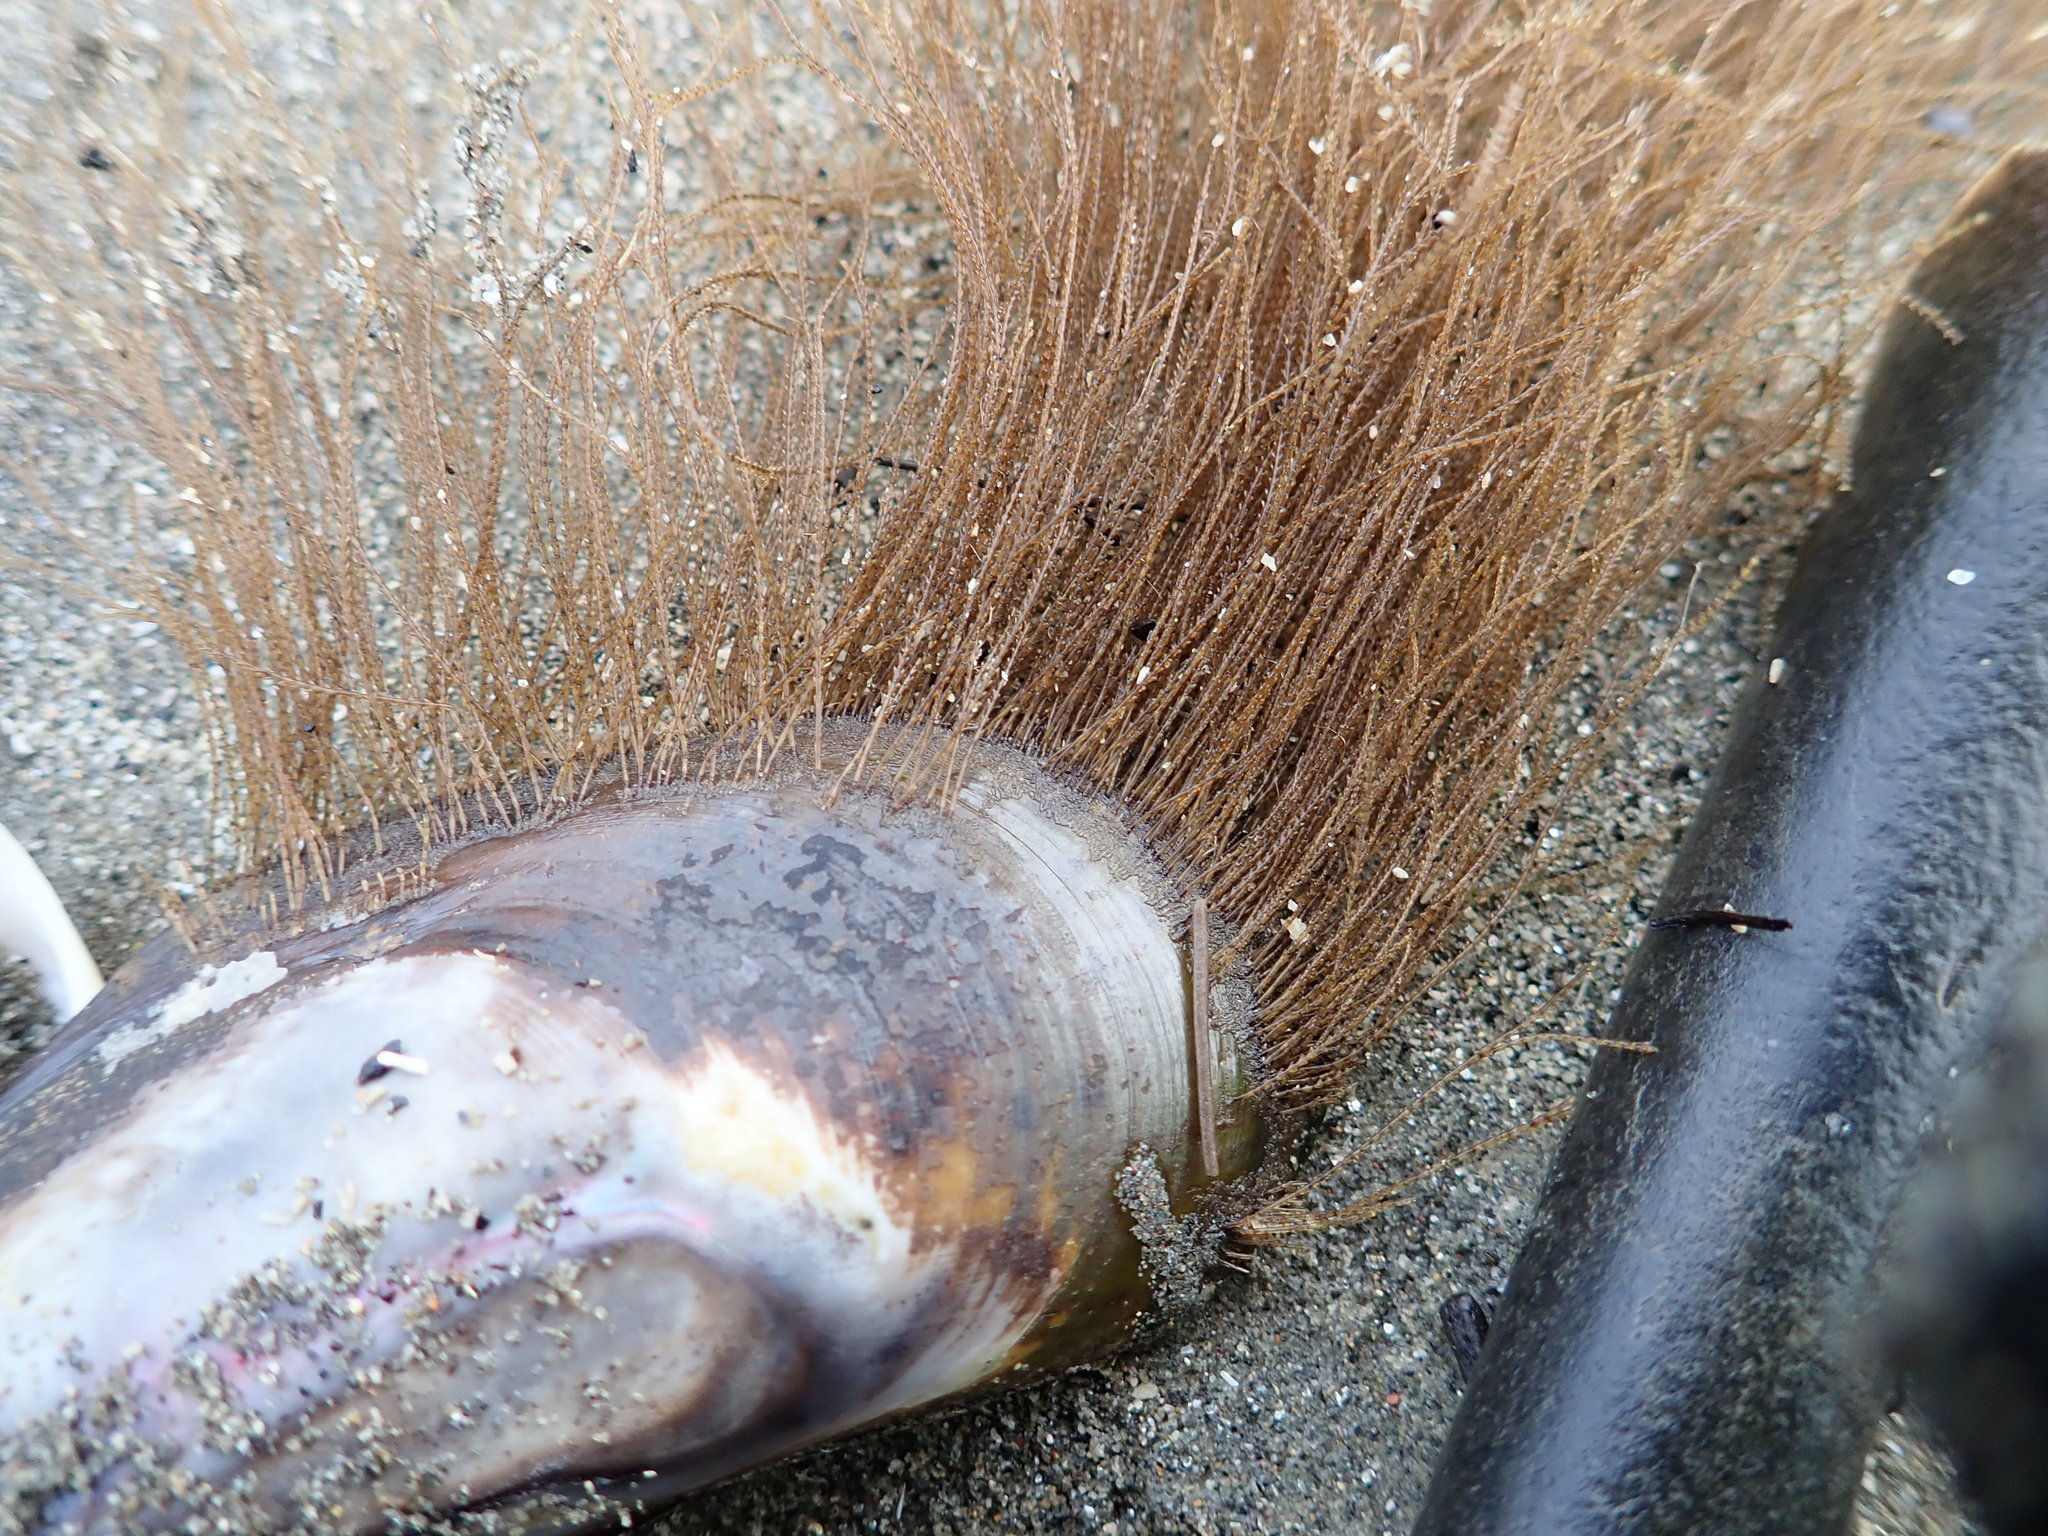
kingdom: Animalia
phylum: Cnidaria
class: Hydrozoa
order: Leptothecata
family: Sertulariidae
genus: Amphisbetia
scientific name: Amphisbetia bispinosa
